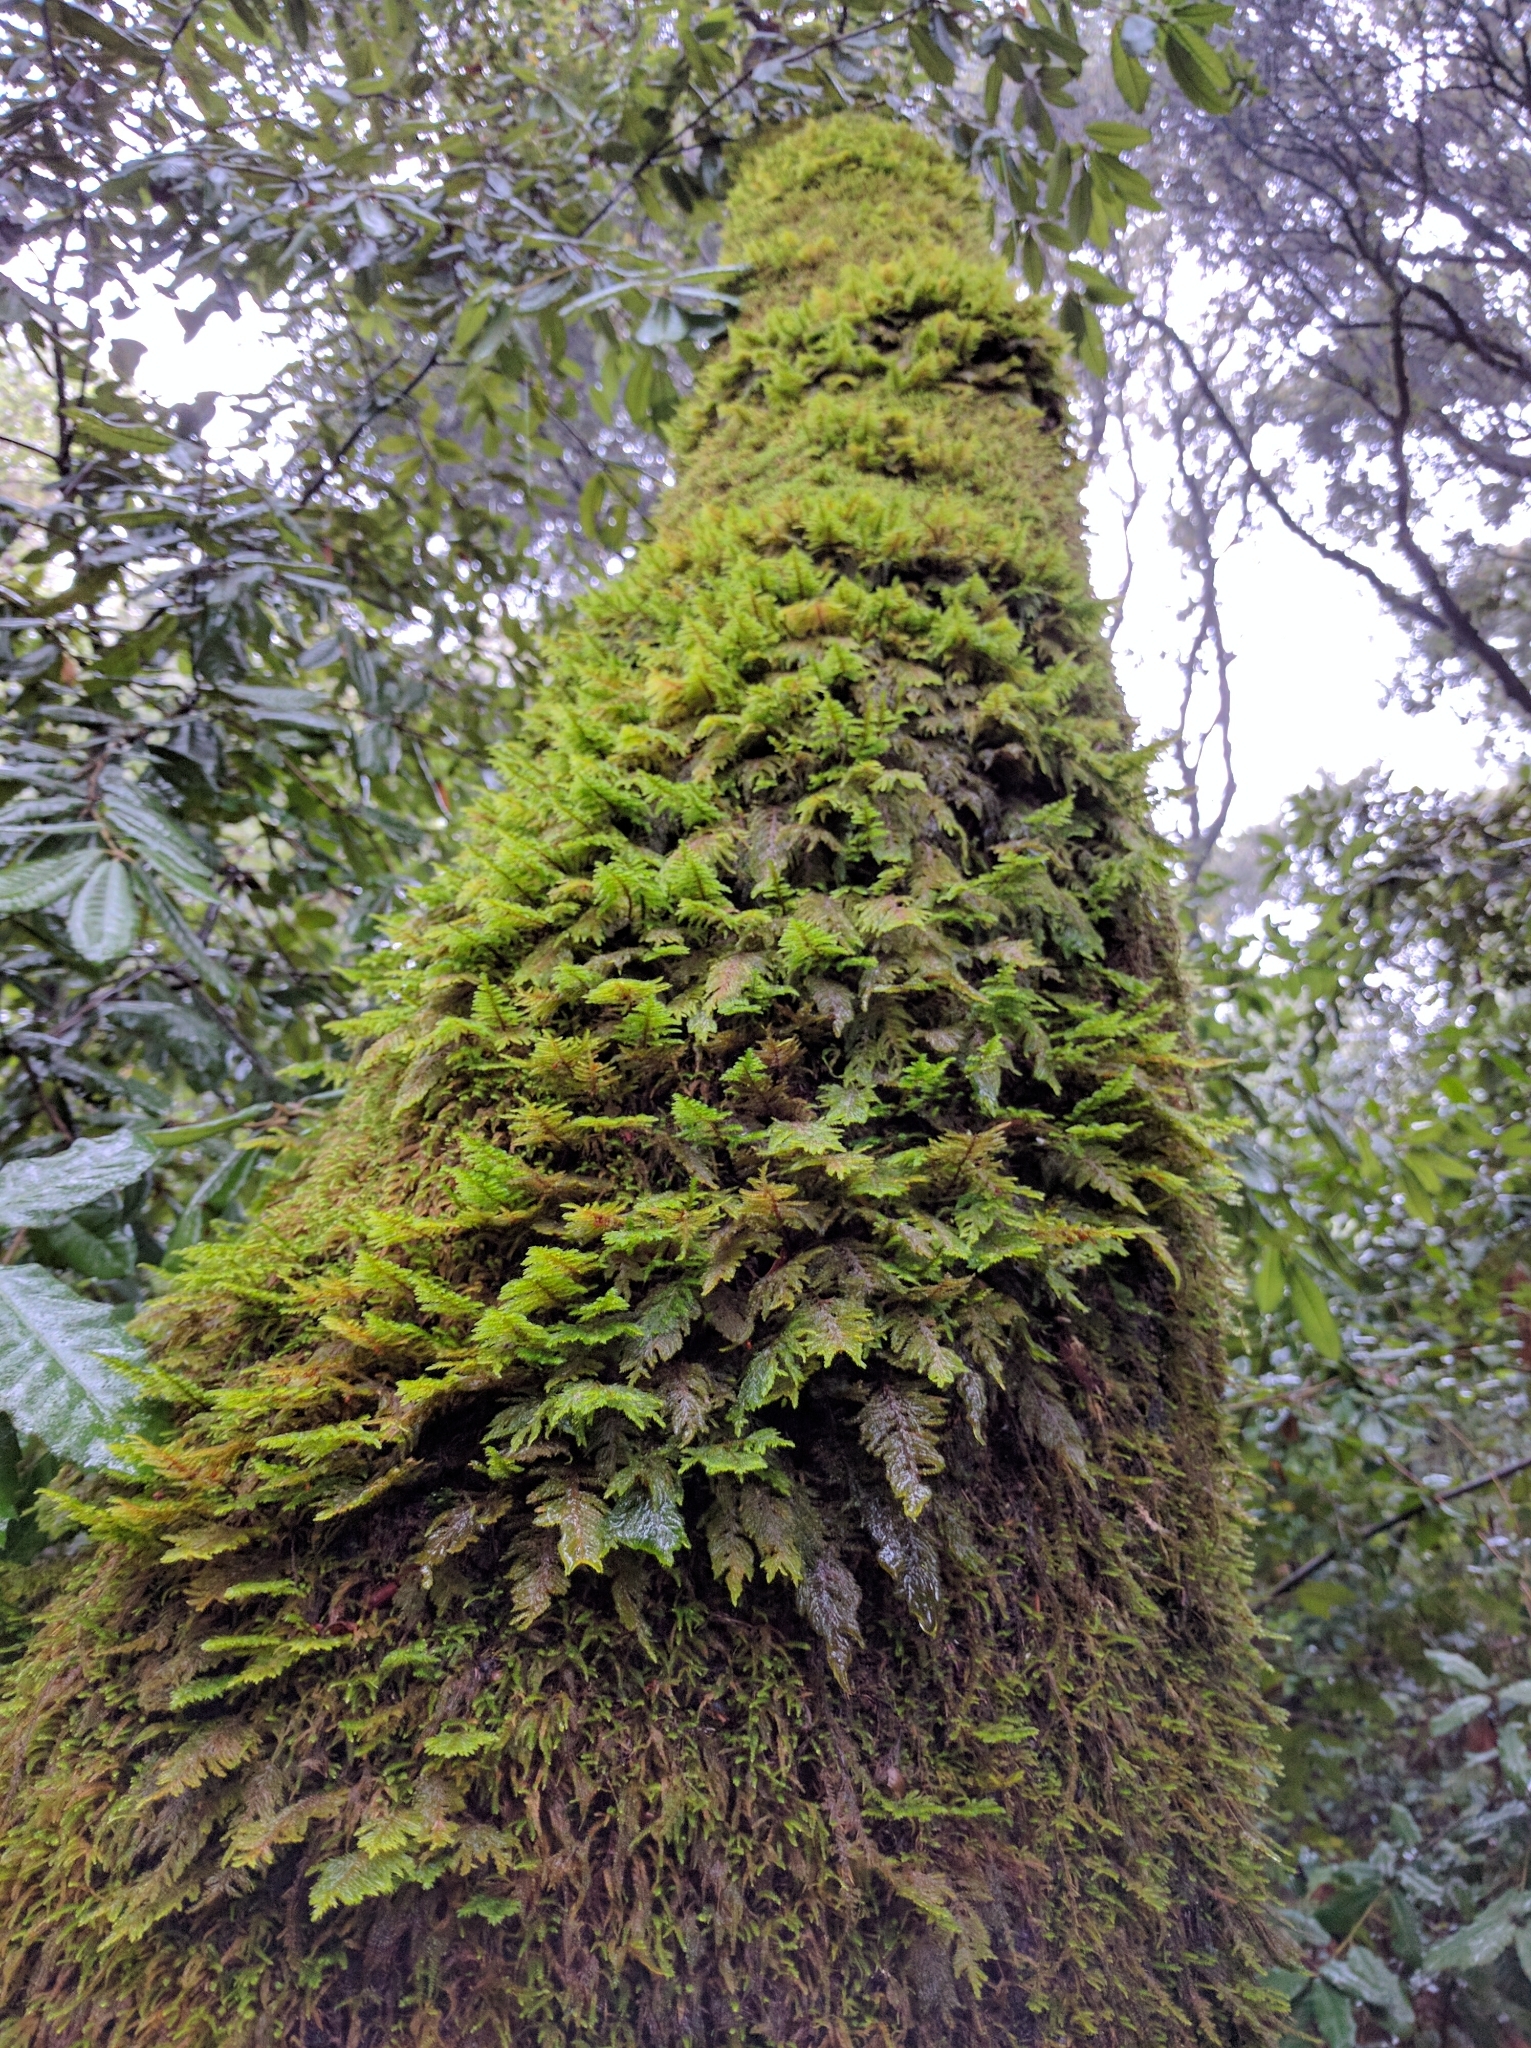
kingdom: Plantae
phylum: Bryophyta
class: Bryopsida
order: Hypnales
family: Cryphaeaceae
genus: Dendroalsia
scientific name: Dendroalsia abietina
